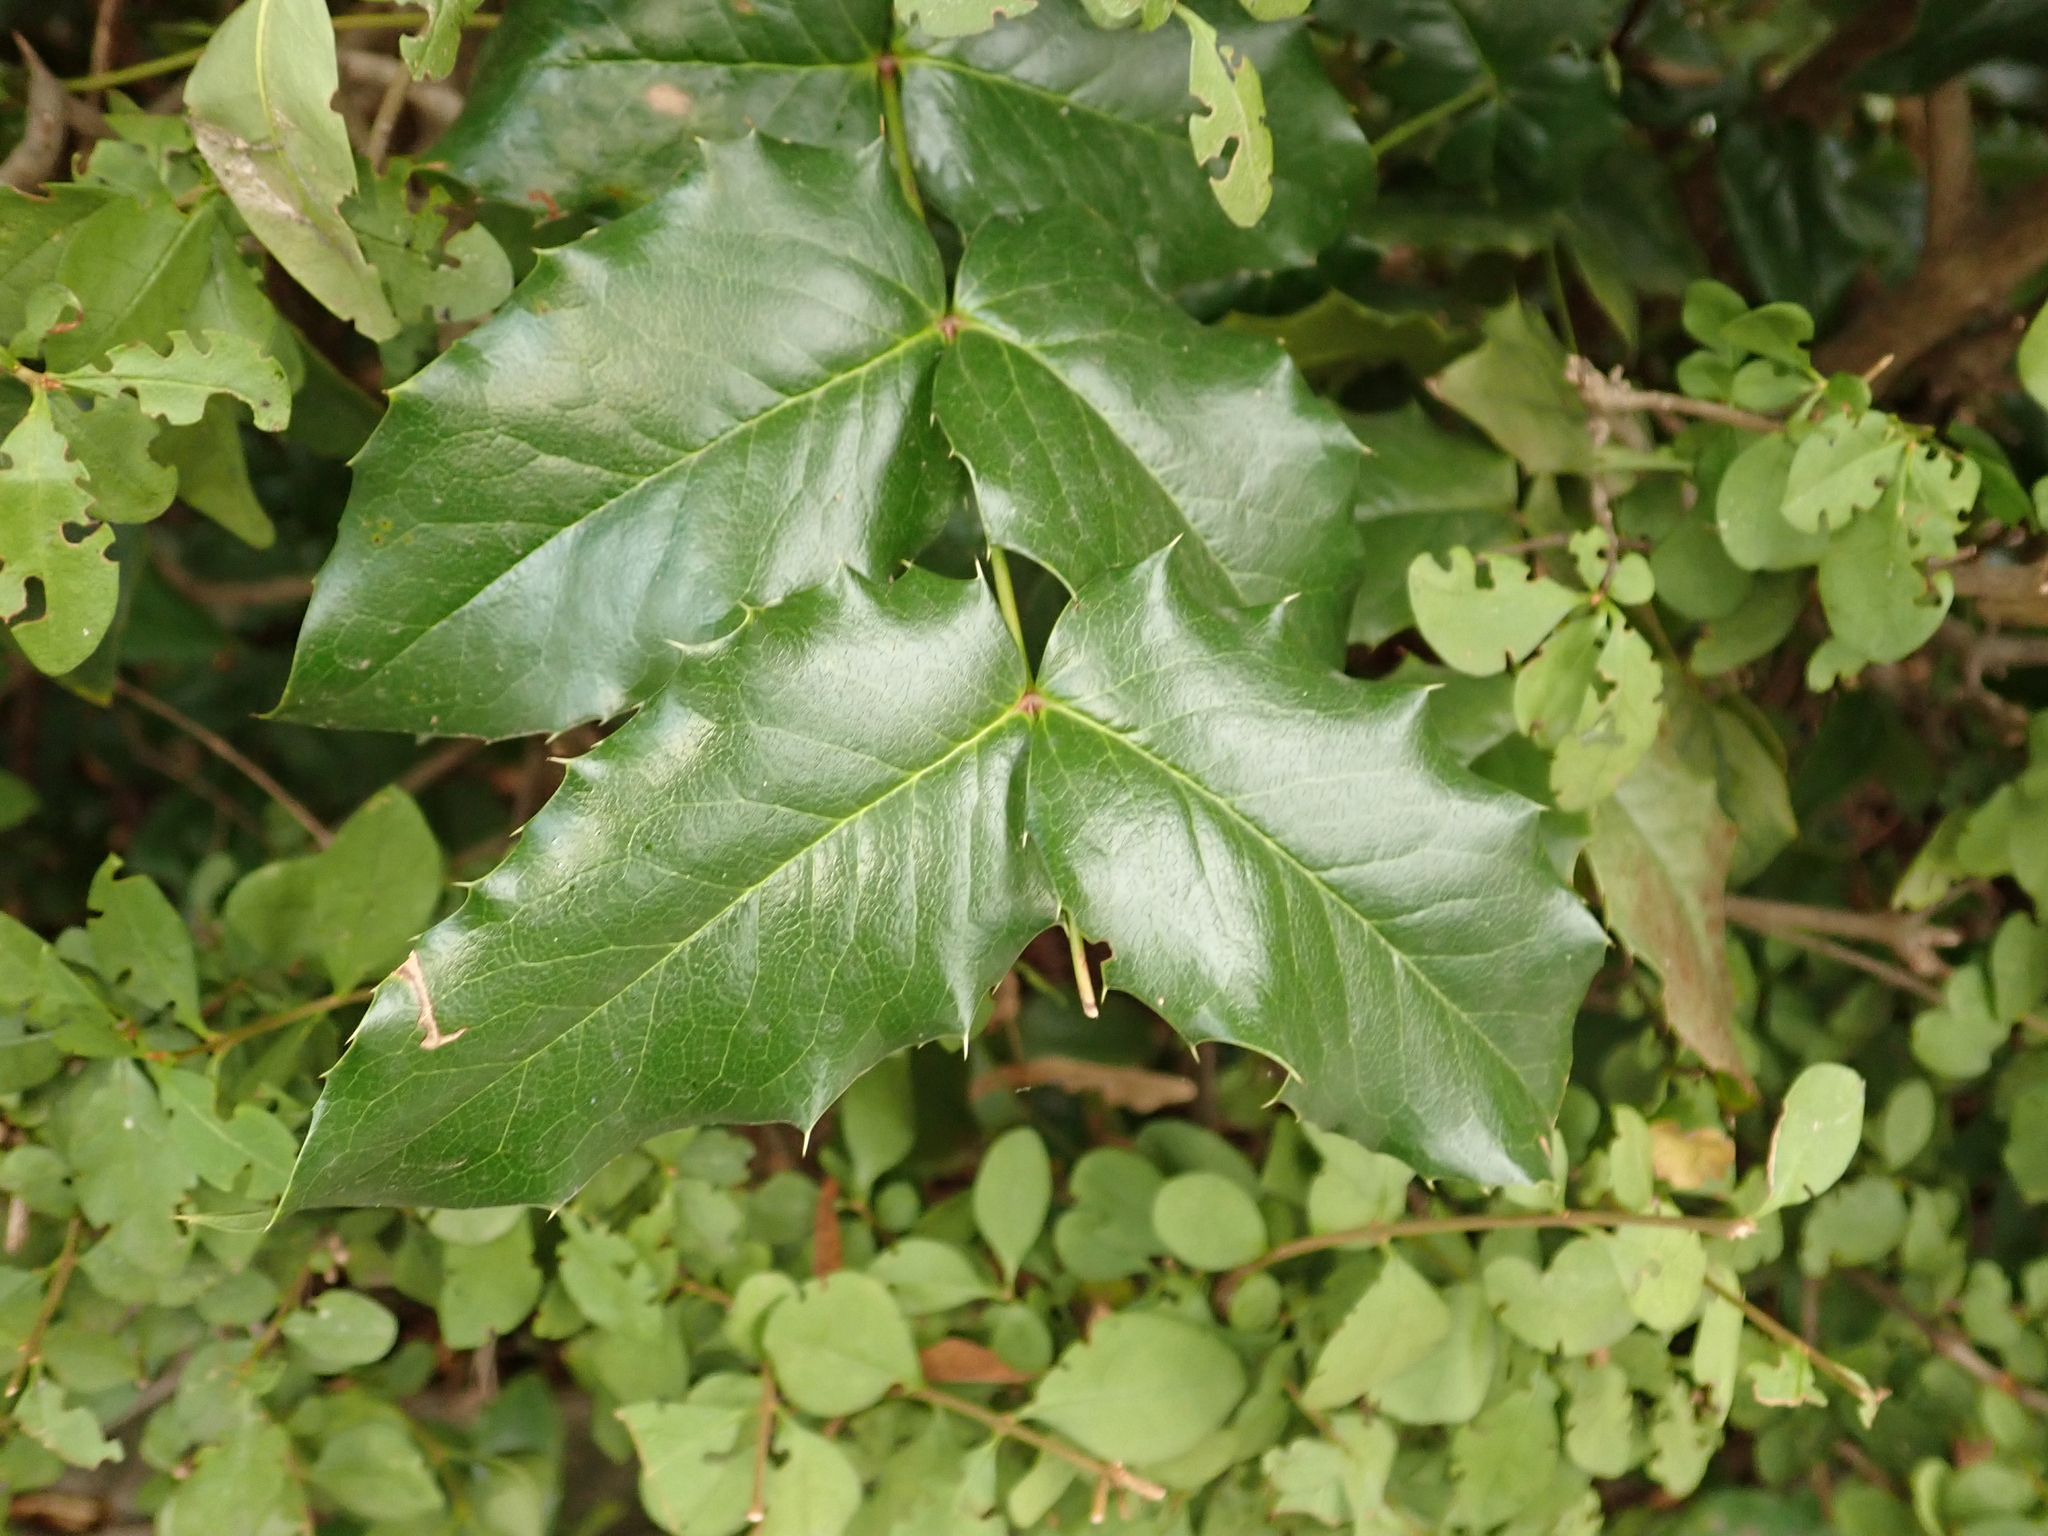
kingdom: Plantae
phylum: Tracheophyta
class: Magnoliopsida
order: Ranunculales
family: Berberidaceae
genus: Mahonia
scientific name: Mahonia aquifolium
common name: Oregon-grape
